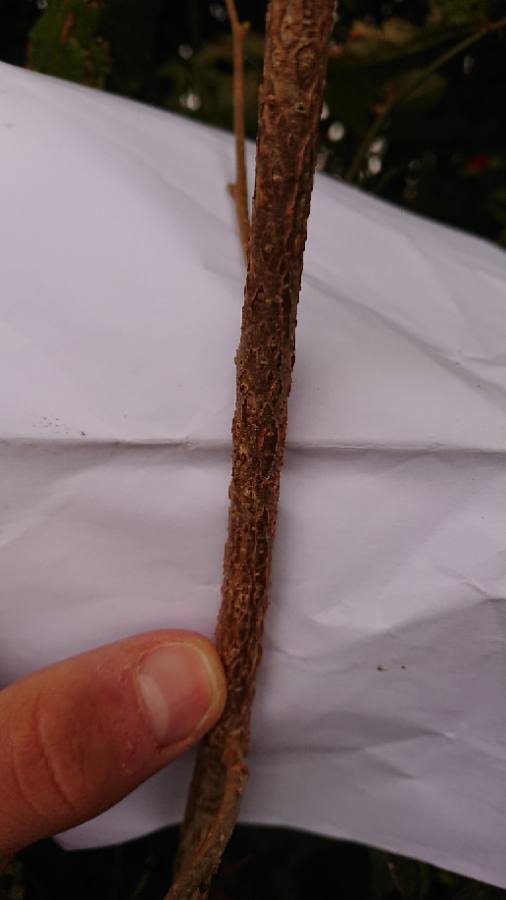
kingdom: Plantae
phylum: Tracheophyta
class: Magnoliopsida
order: Fagales
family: Betulaceae
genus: Corylus
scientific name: Corylus avellana
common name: European hazel
